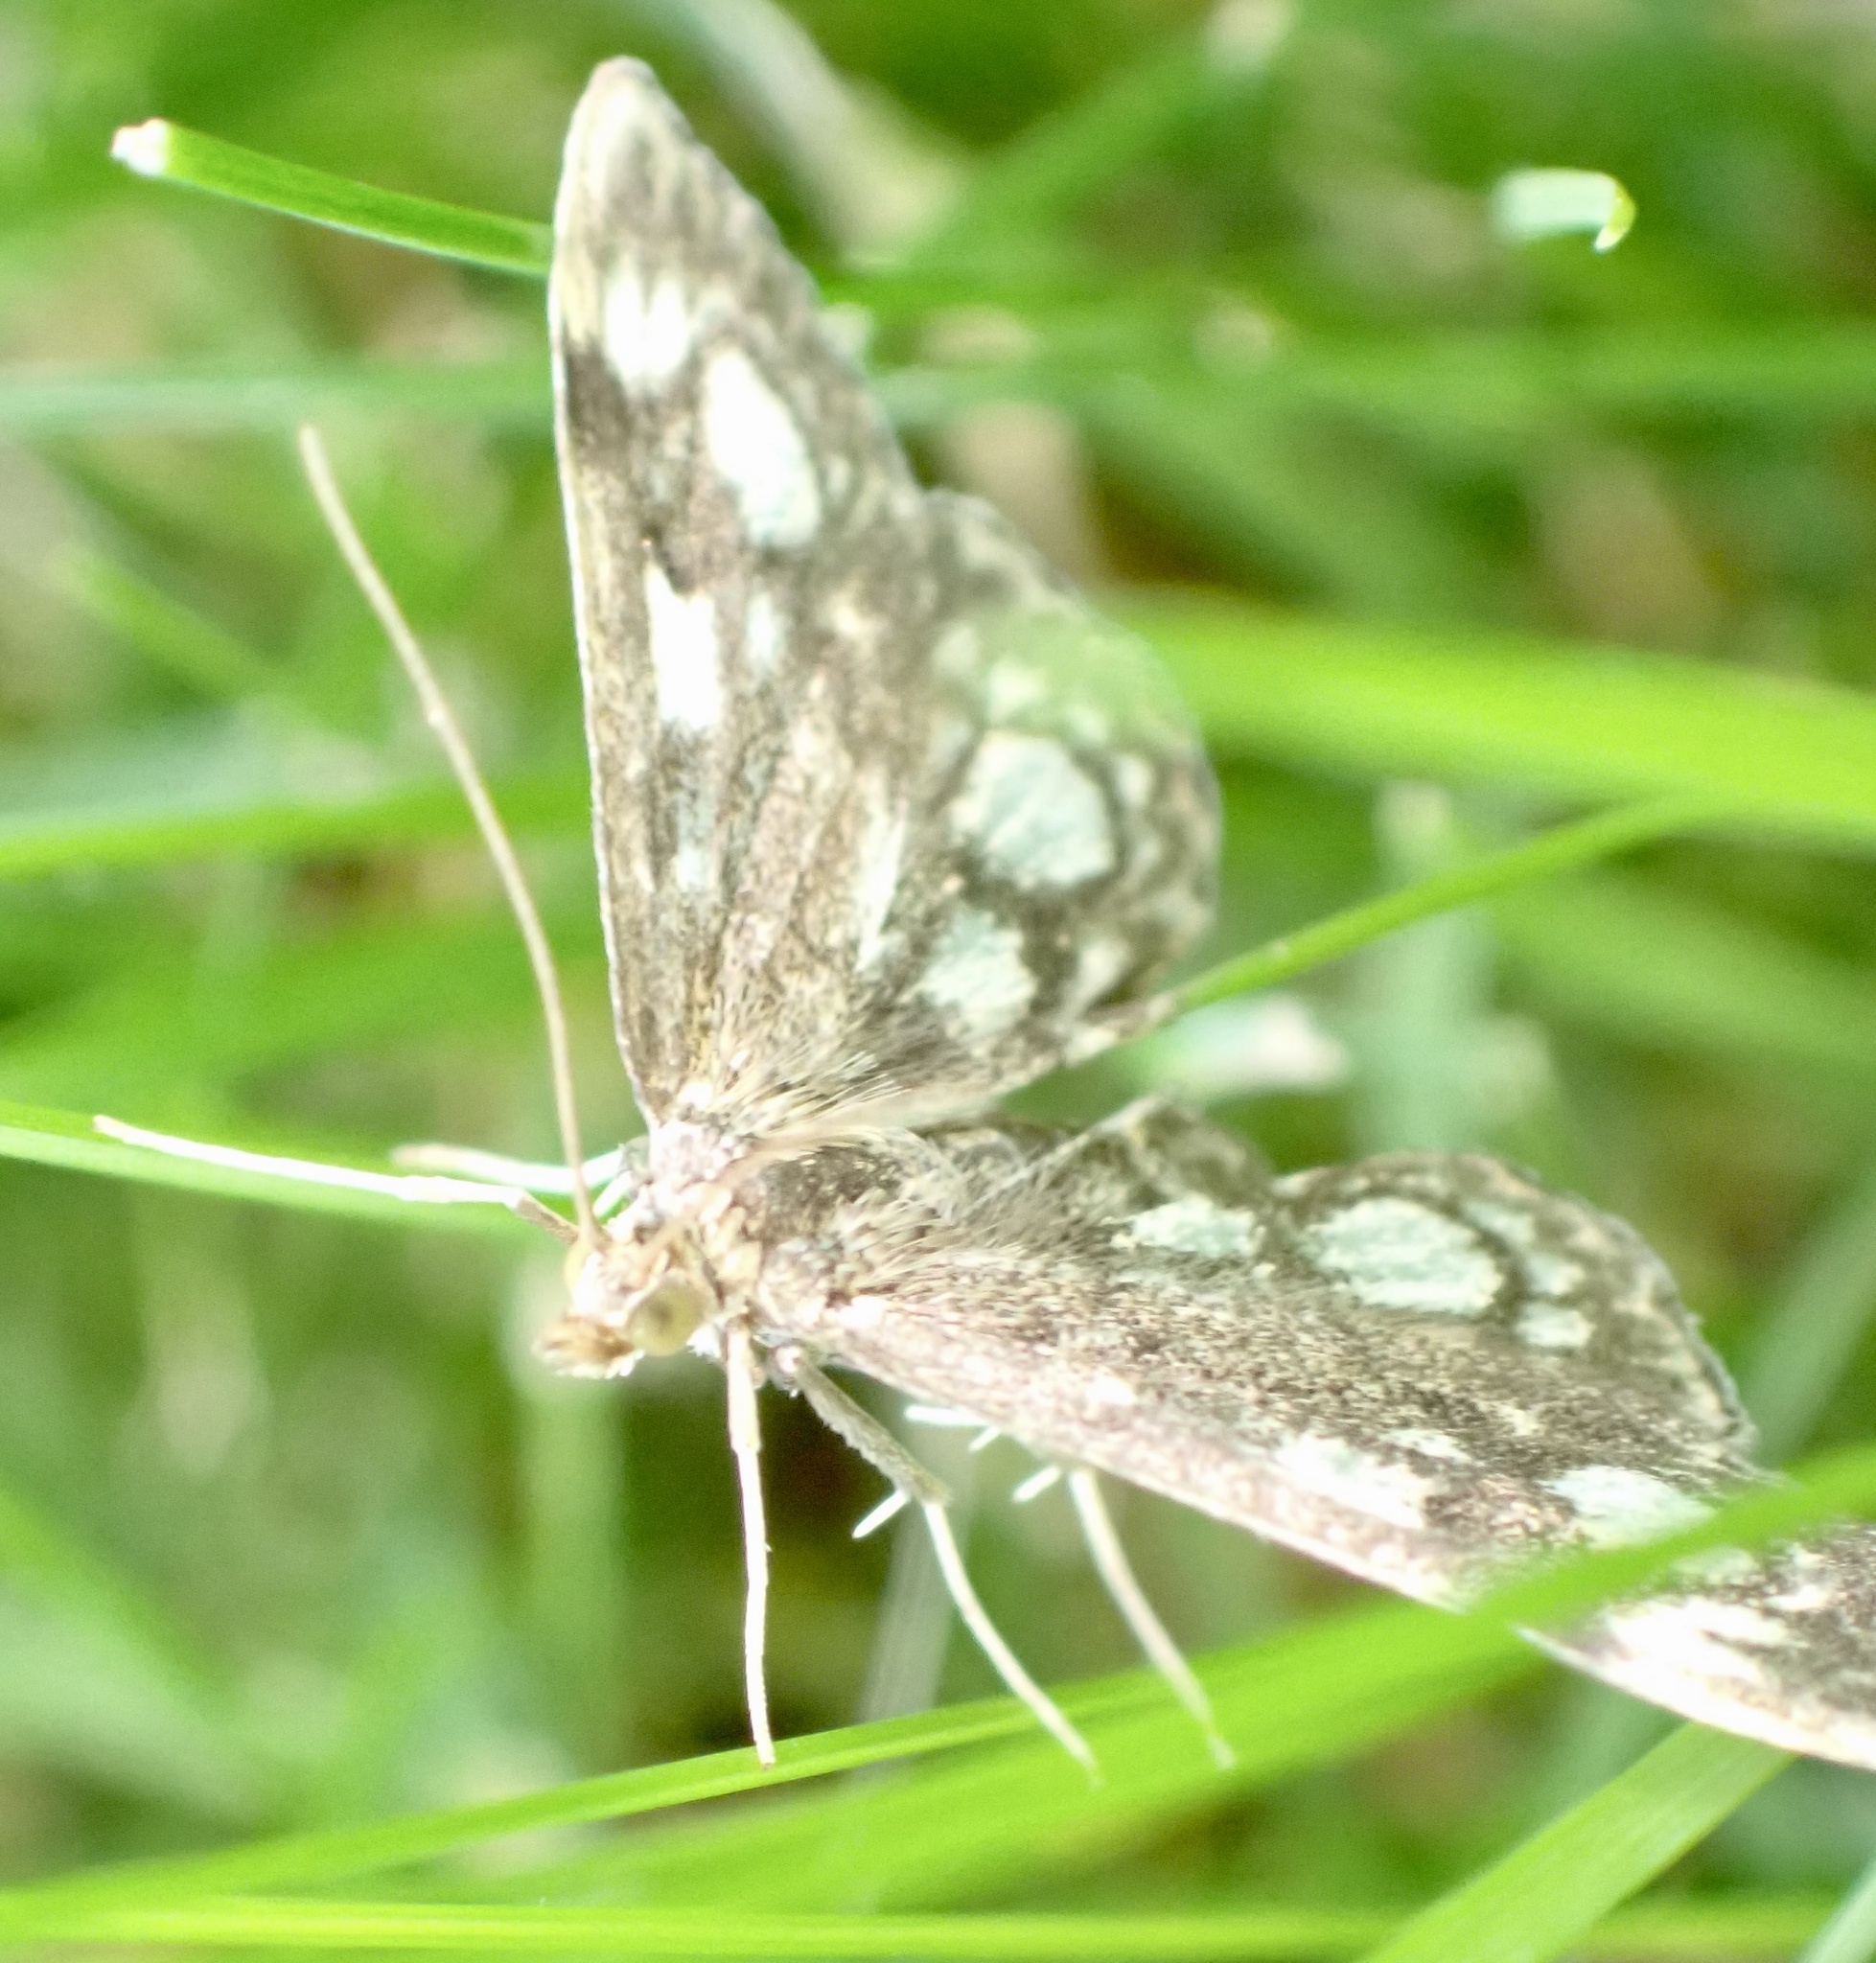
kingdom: Animalia
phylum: Arthropoda
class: Insecta
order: Lepidoptera
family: Crambidae
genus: Anania
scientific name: Anania coronata
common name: Elder pearl
